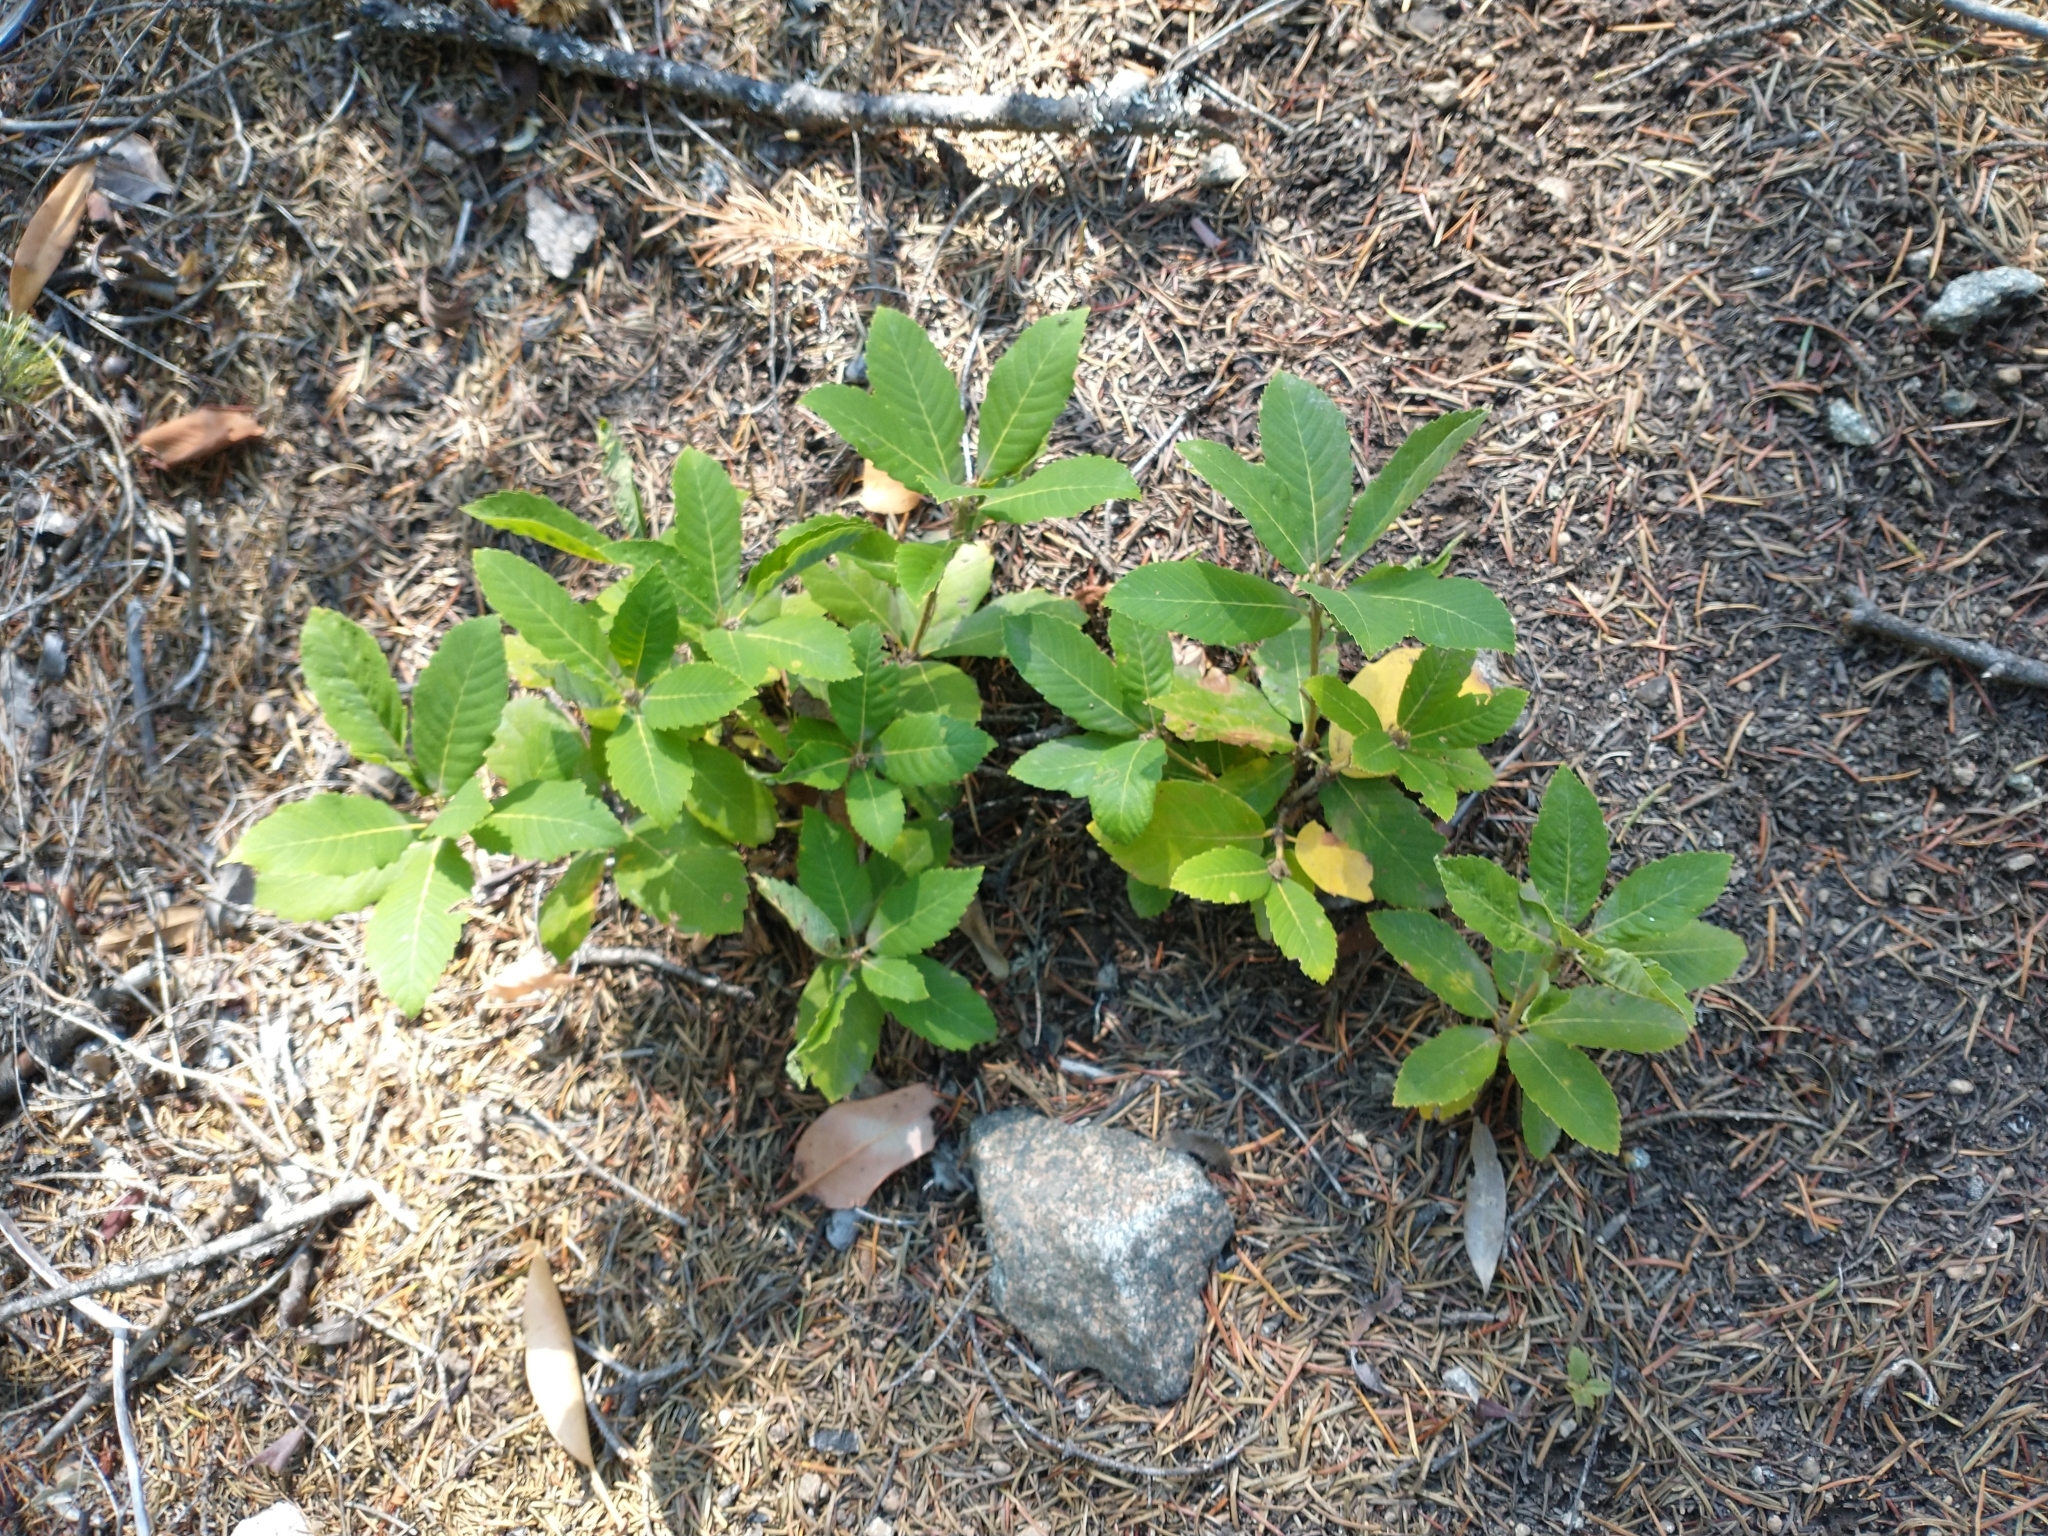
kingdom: Plantae
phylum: Tracheophyta
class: Magnoliopsida
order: Fagales
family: Fagaceae
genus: Quercus
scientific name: Quercus sadleriana
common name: Deer oak
